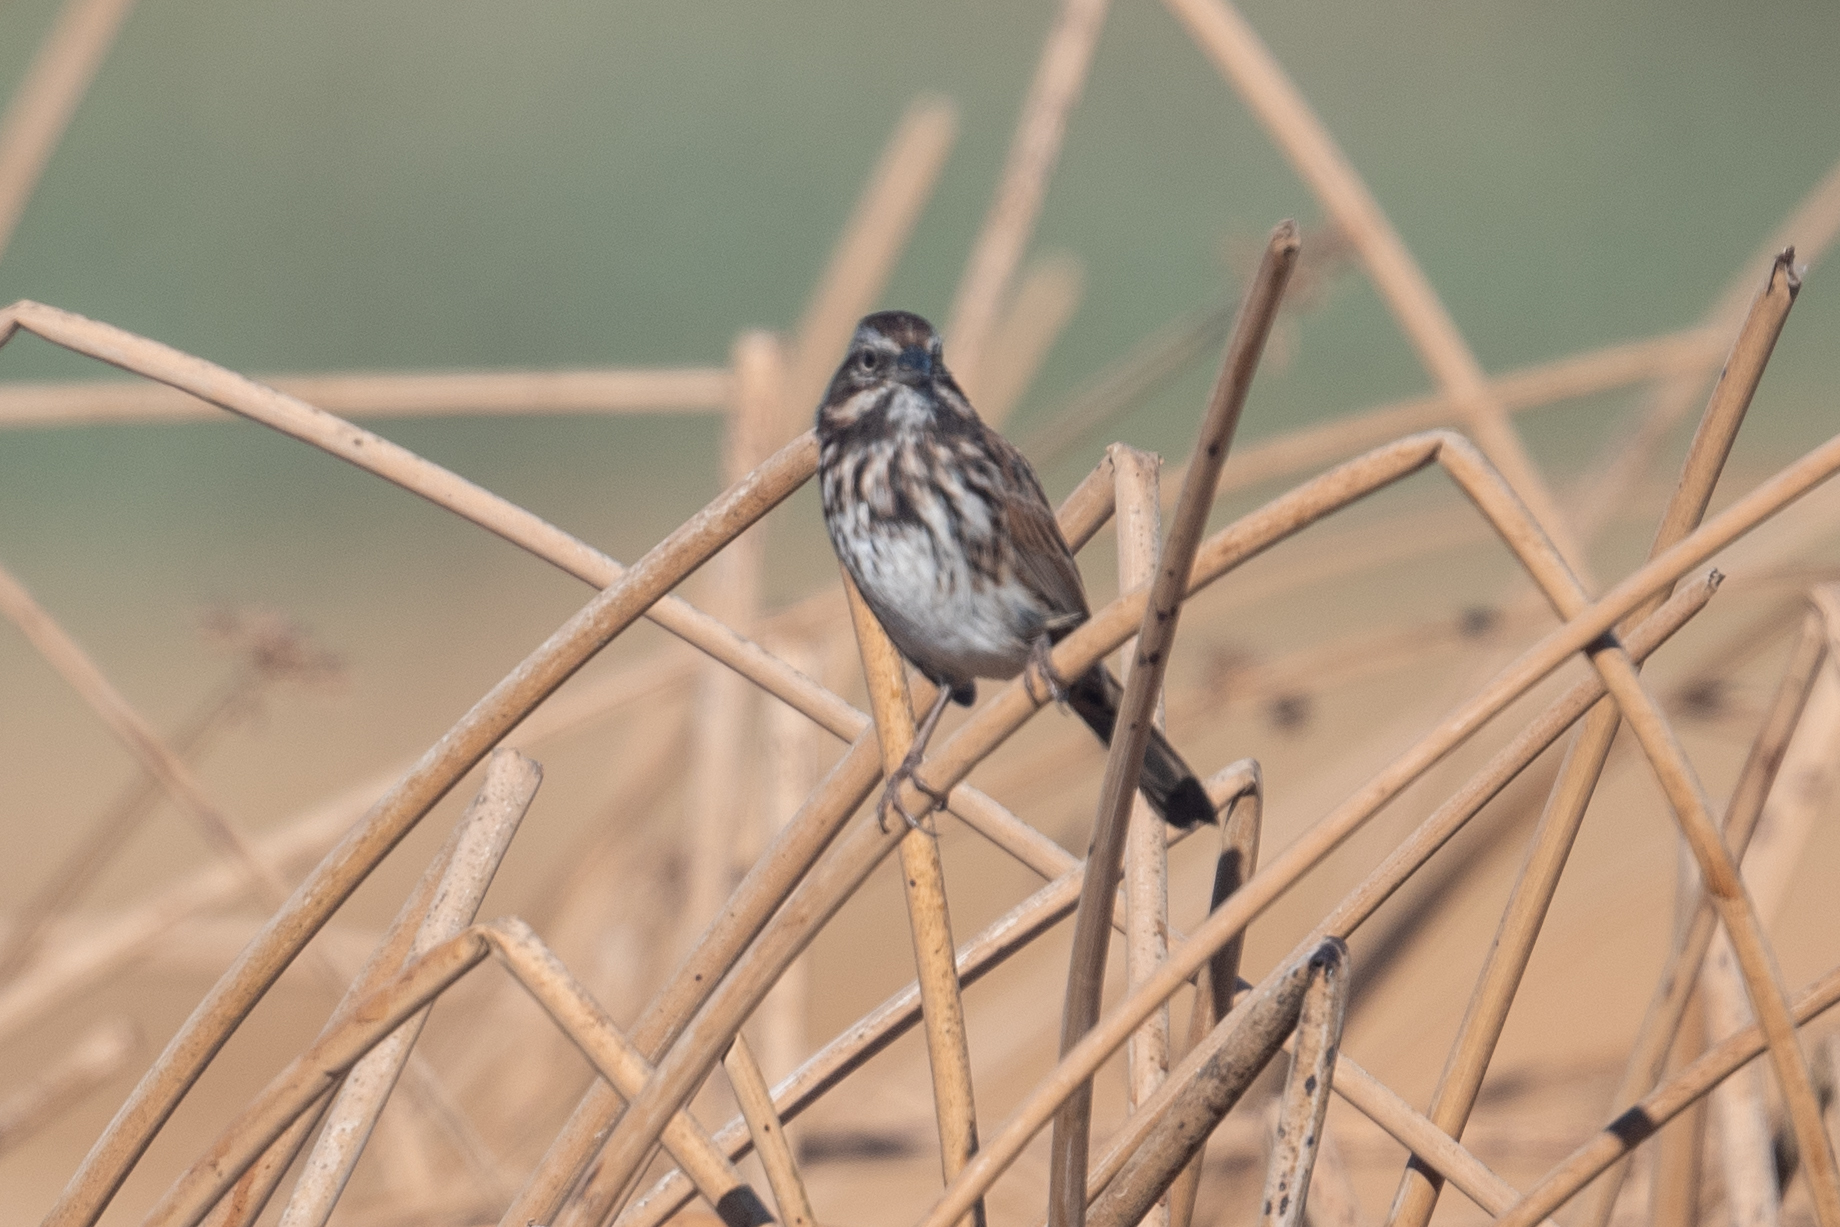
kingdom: Animalia
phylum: Chordata
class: Aves
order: Passeriformes
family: Passerellidae
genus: Melospiza
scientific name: Melospiza melodia
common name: Song sparrow
